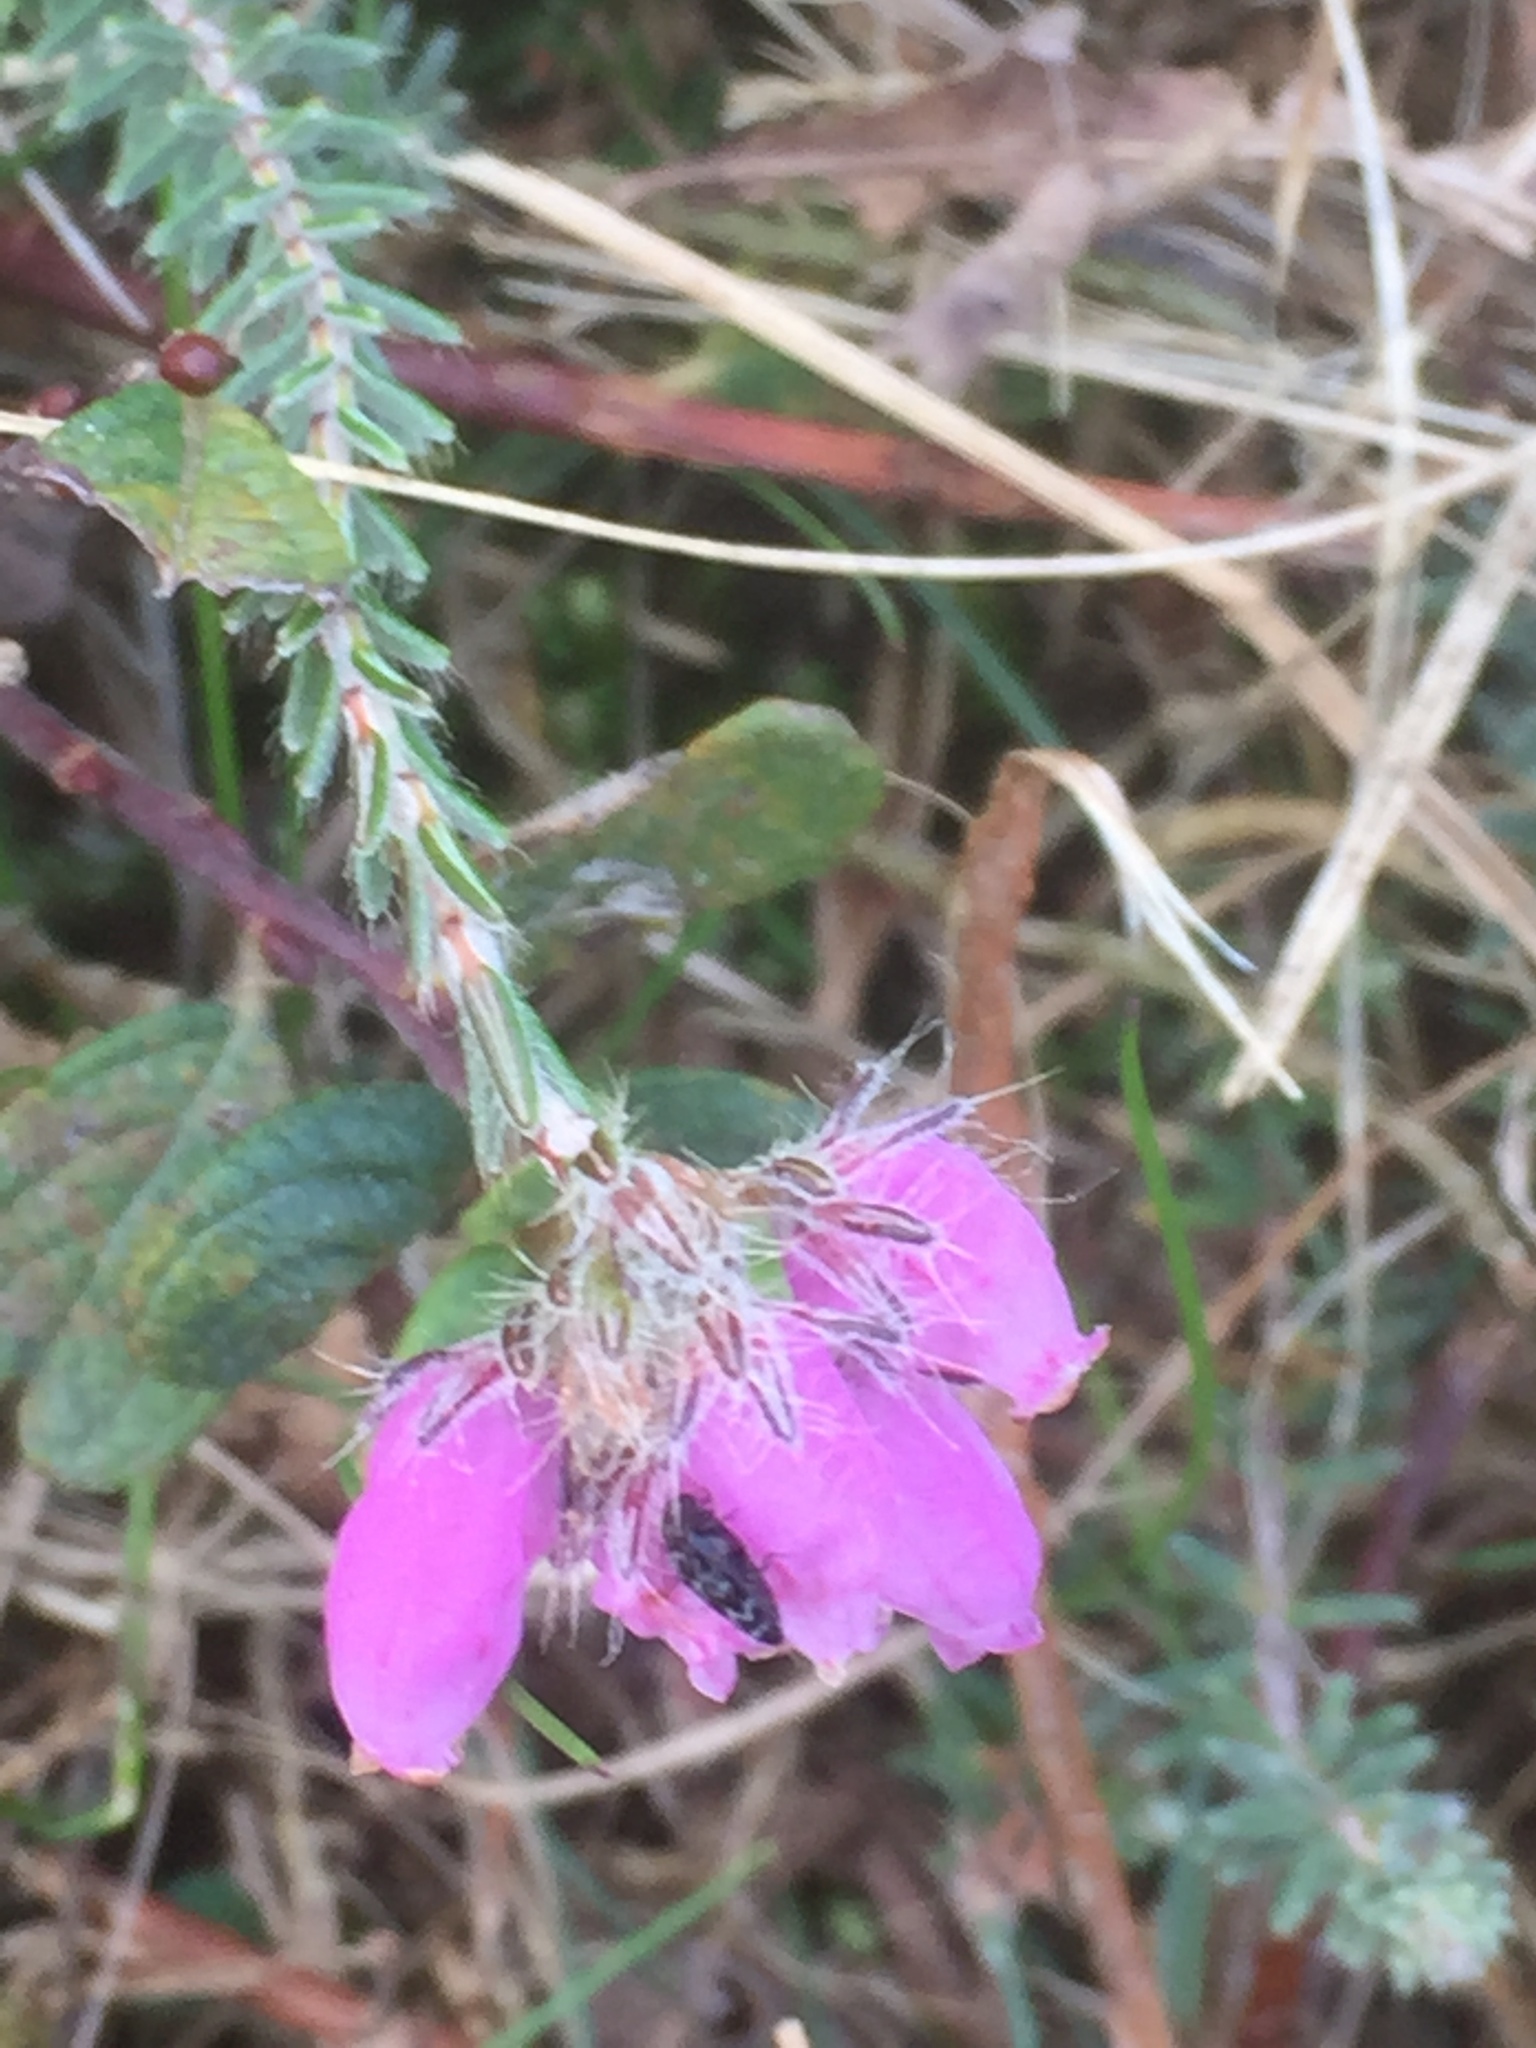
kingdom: Plantae
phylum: Tracheophyta
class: Magnoliopsida
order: Ericales
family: Ericaceae
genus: Erica
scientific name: Erica tetralix
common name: Cross-leaved heath
